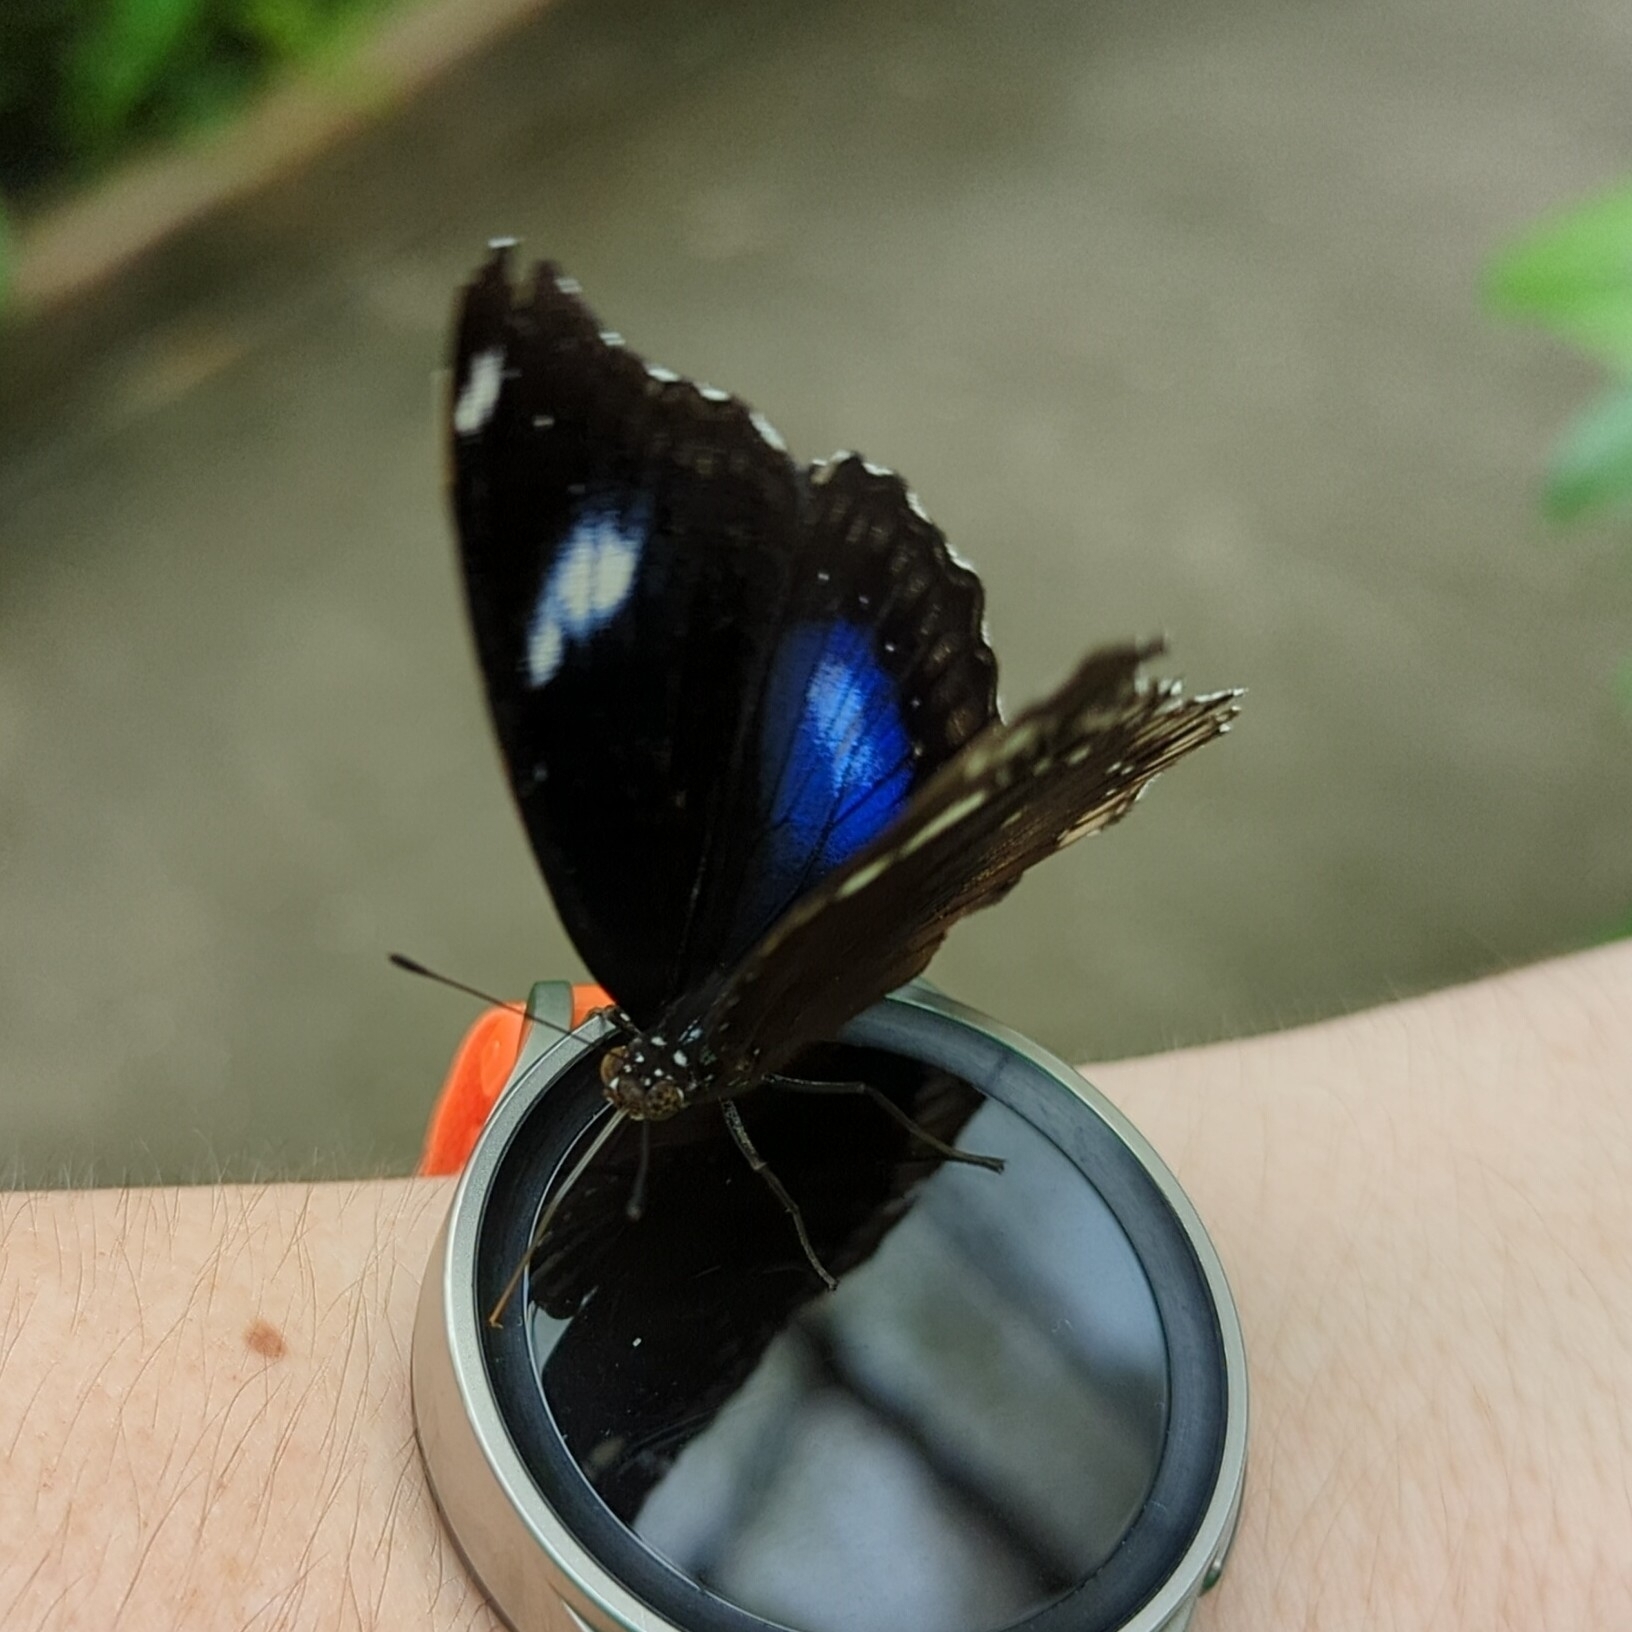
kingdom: Animalia
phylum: Arthropoda
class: Insecta
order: Lepidoptera
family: Nymphalidae
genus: Hypolimnas
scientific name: Hypolimnas bolina
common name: Great eggfly
